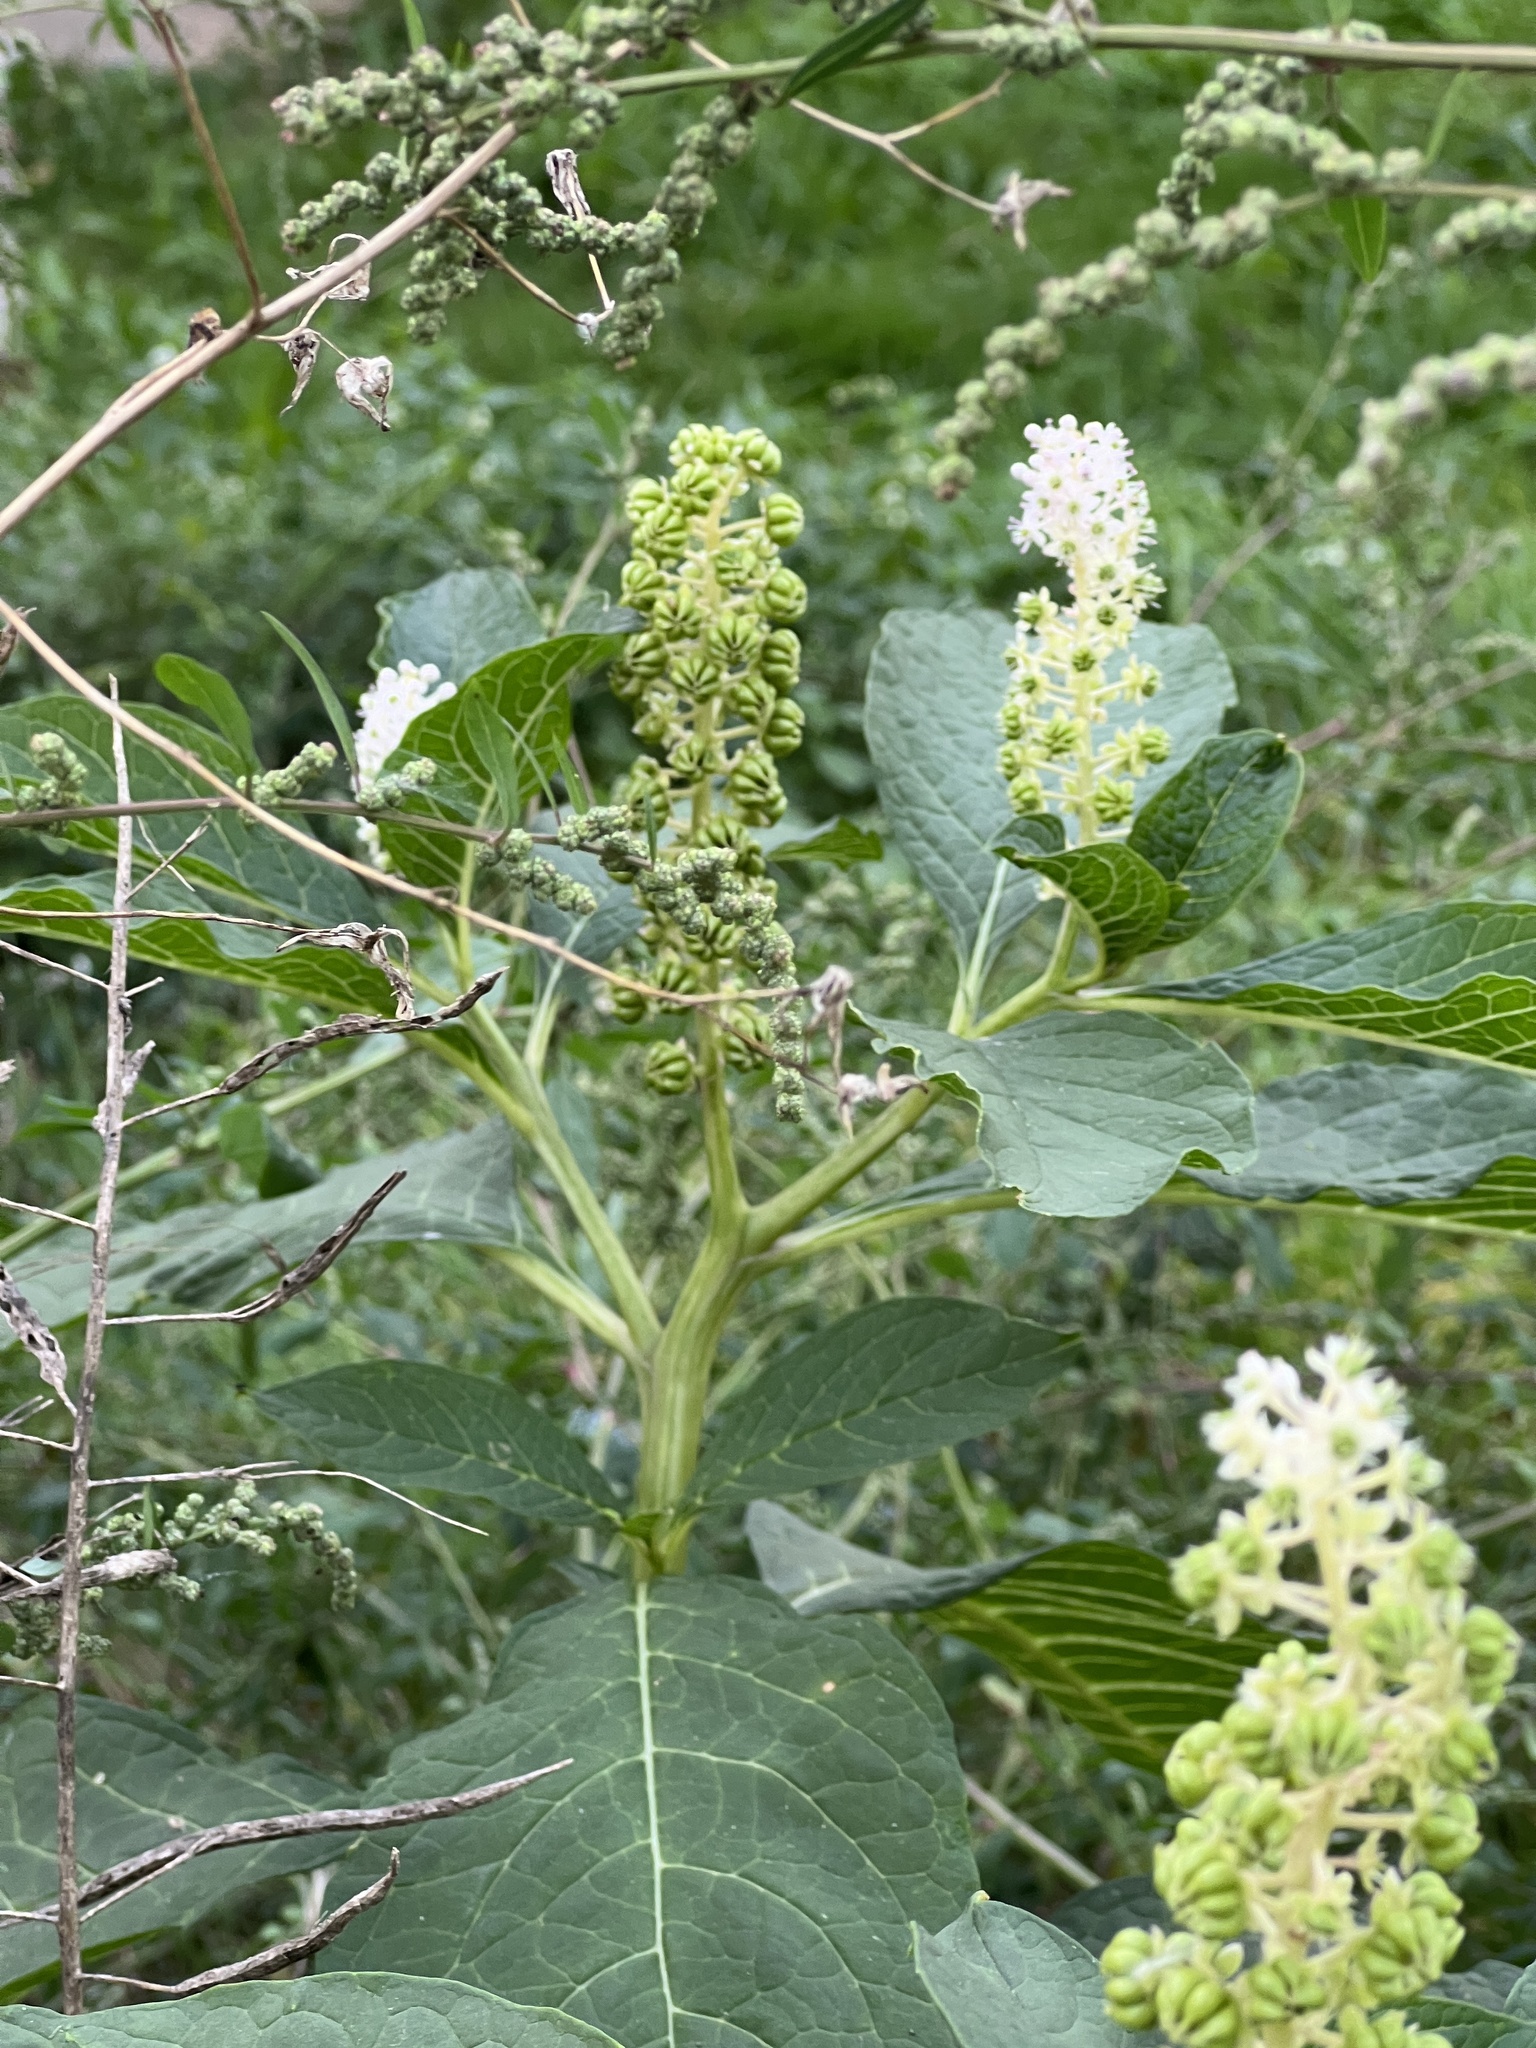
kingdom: Plantae
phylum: Tracheophyta
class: Magnoliopsida
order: Caryophyllales
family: Phytolaccaceae
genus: Phytolacca
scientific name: Phytolacca acinosa
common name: Indian pokeweed
